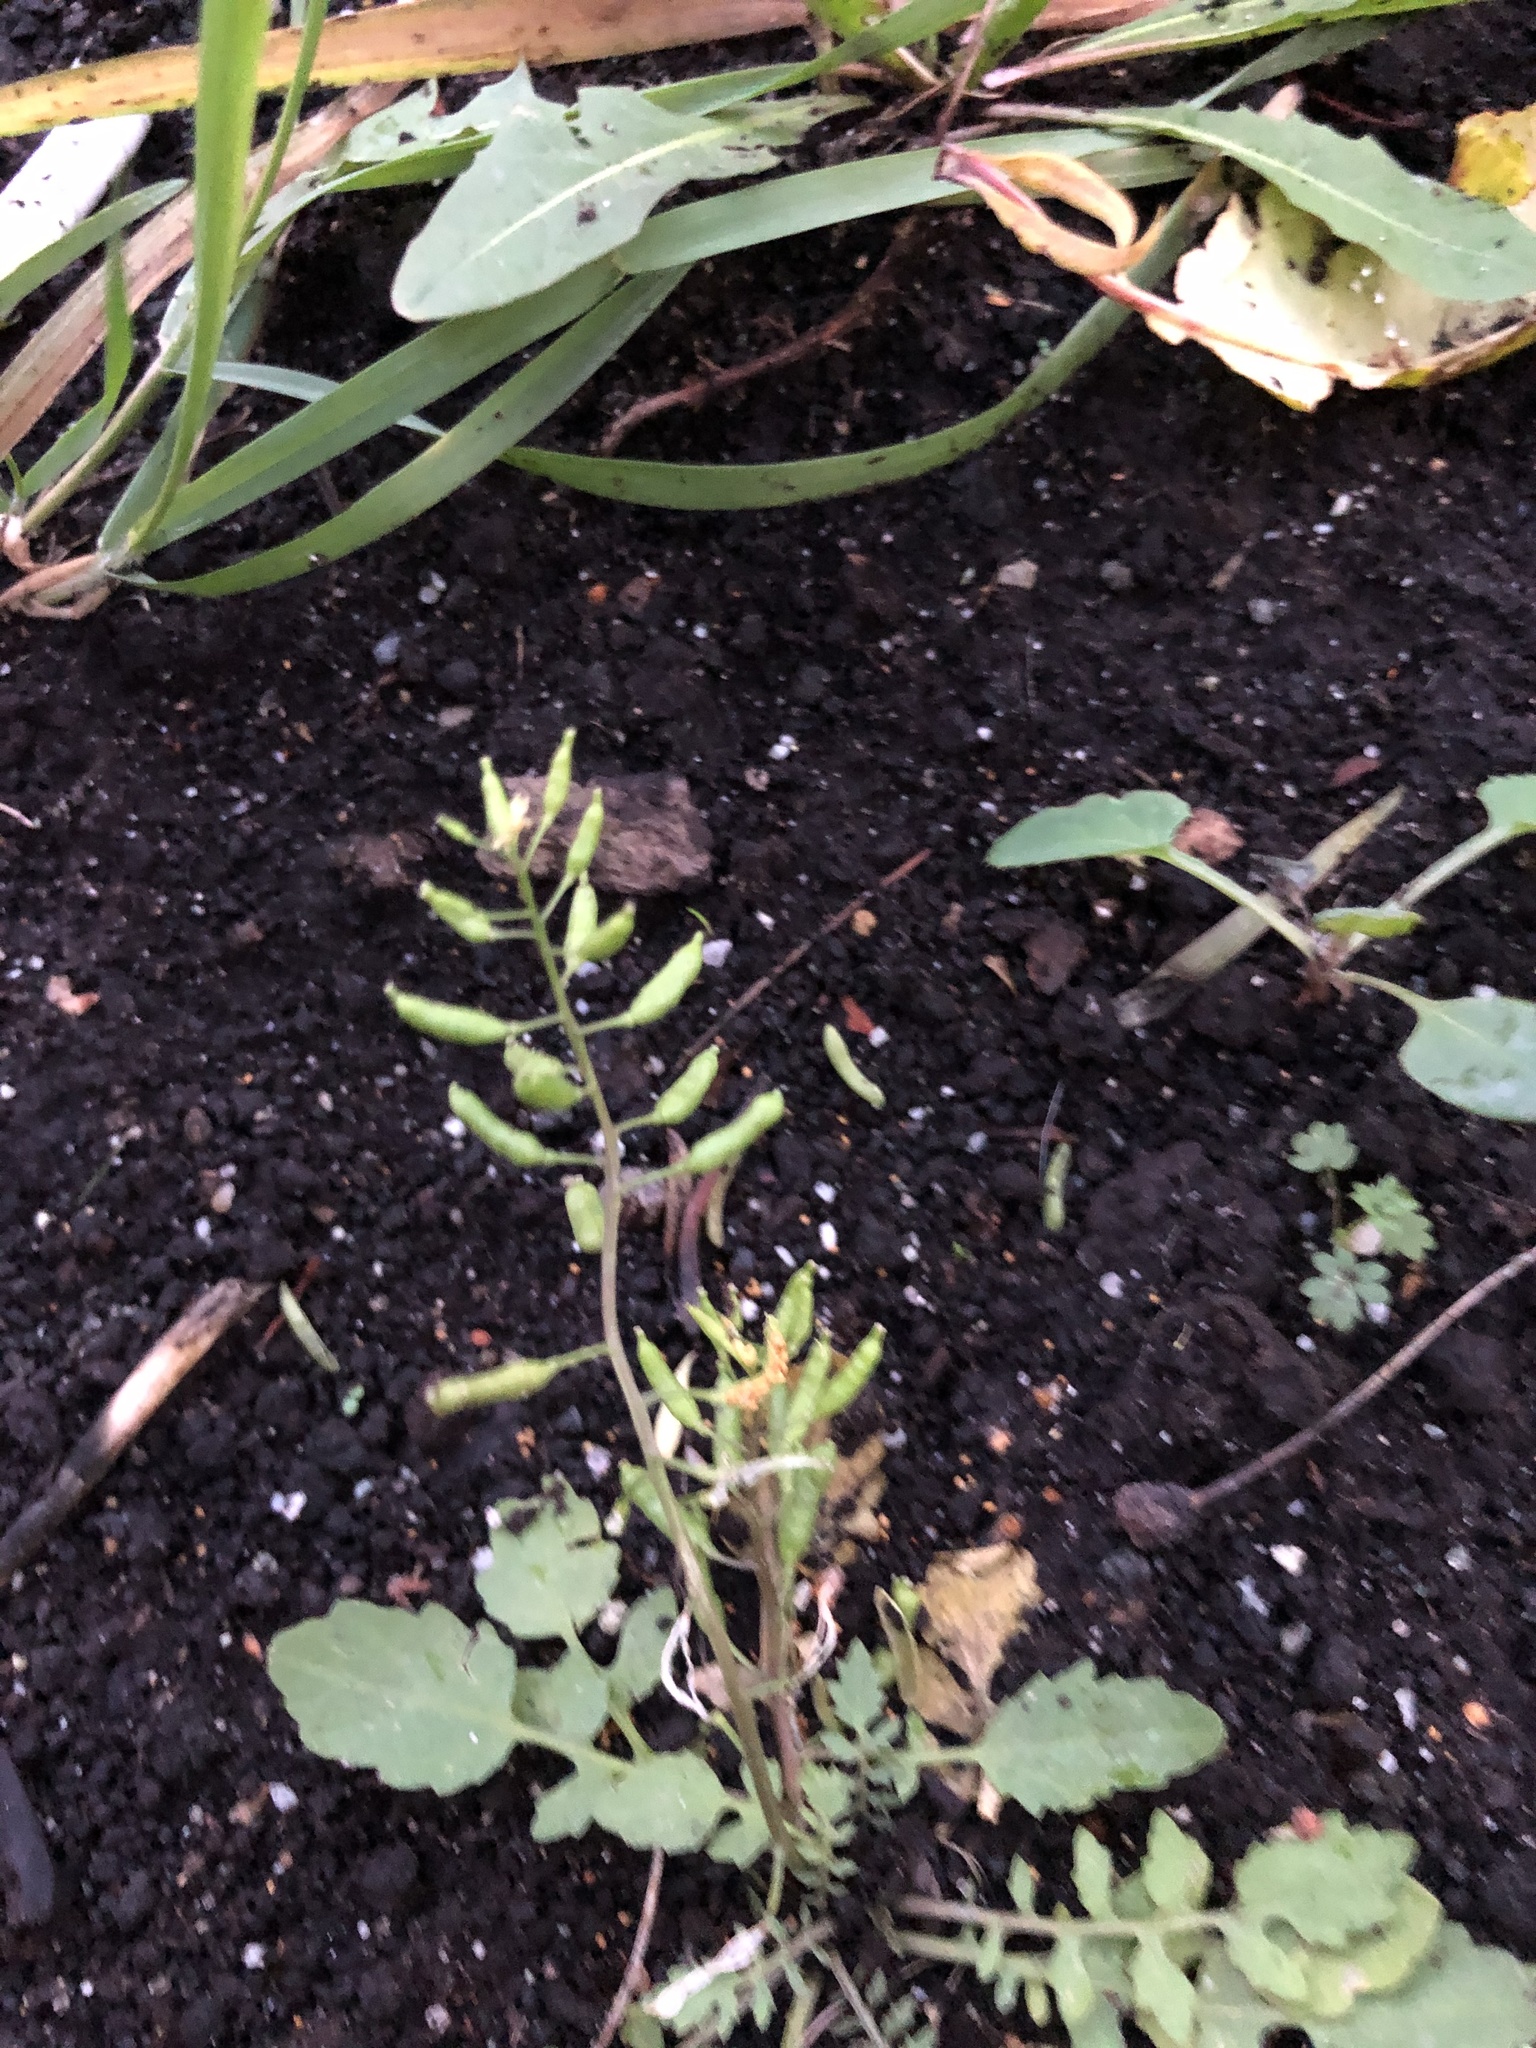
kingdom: Plantae
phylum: Tracheophyta
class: Magnoliopsida
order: Brassicales
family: Brassicaceae
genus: Rorippa
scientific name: Rorippa palustris
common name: Marsh yellow-cress
